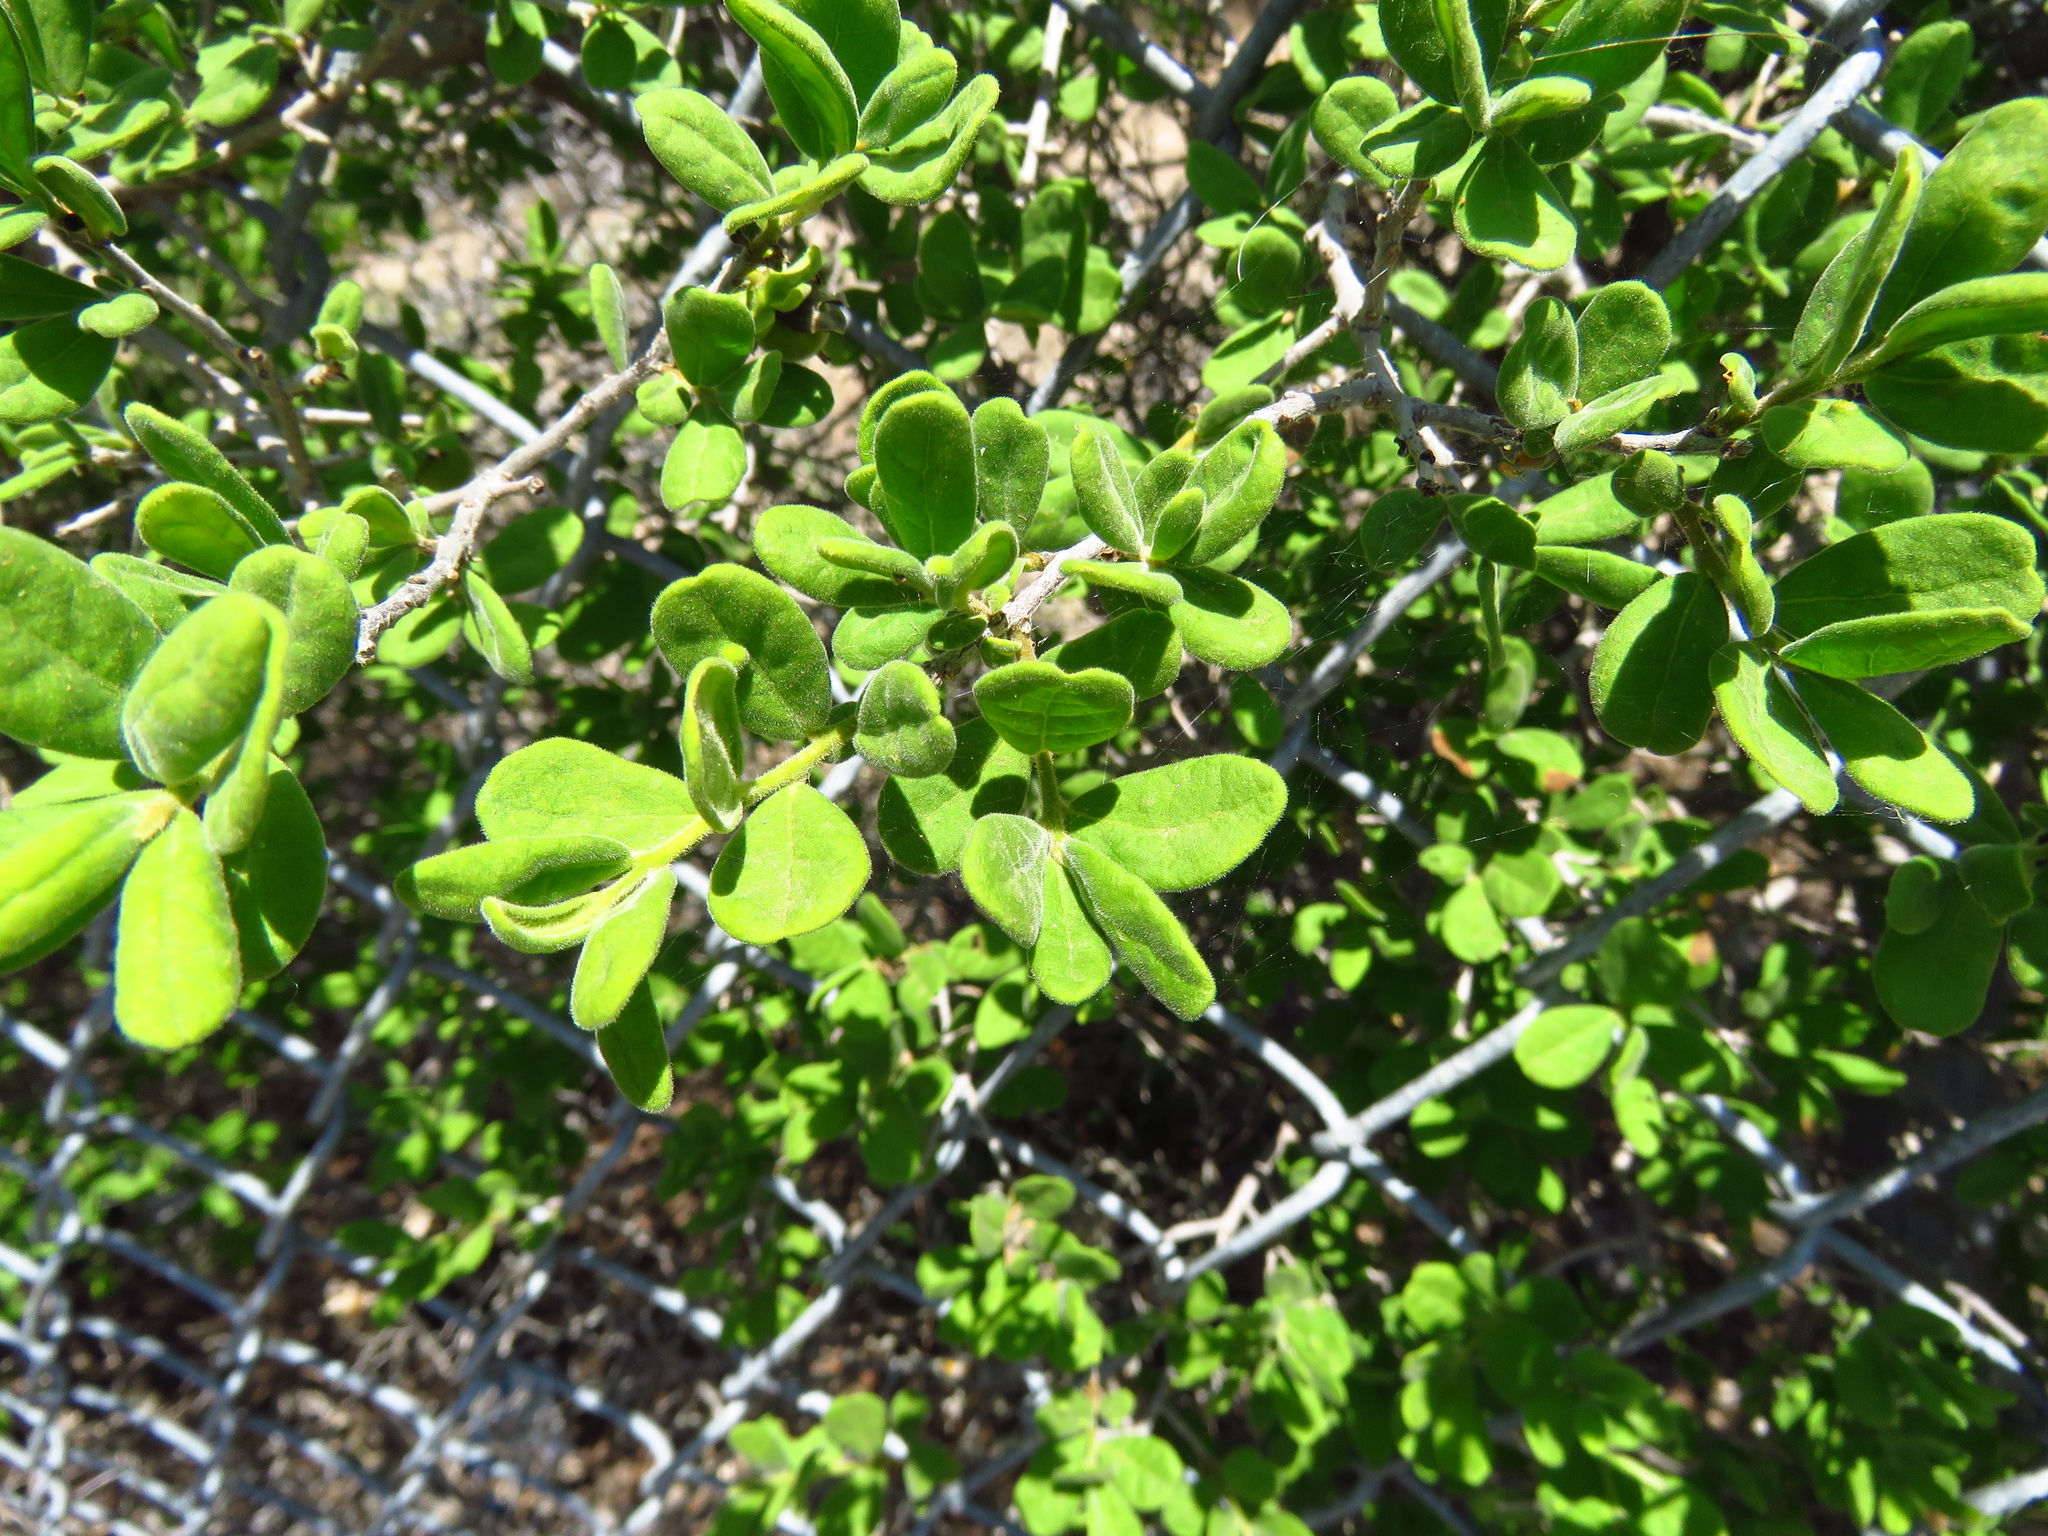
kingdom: Plantae
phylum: Tracheophyta
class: Magnoliopsida
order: Ericales
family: Ebenaceae
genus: Diospyros
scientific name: Diospyros texana
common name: Texas persimmon
